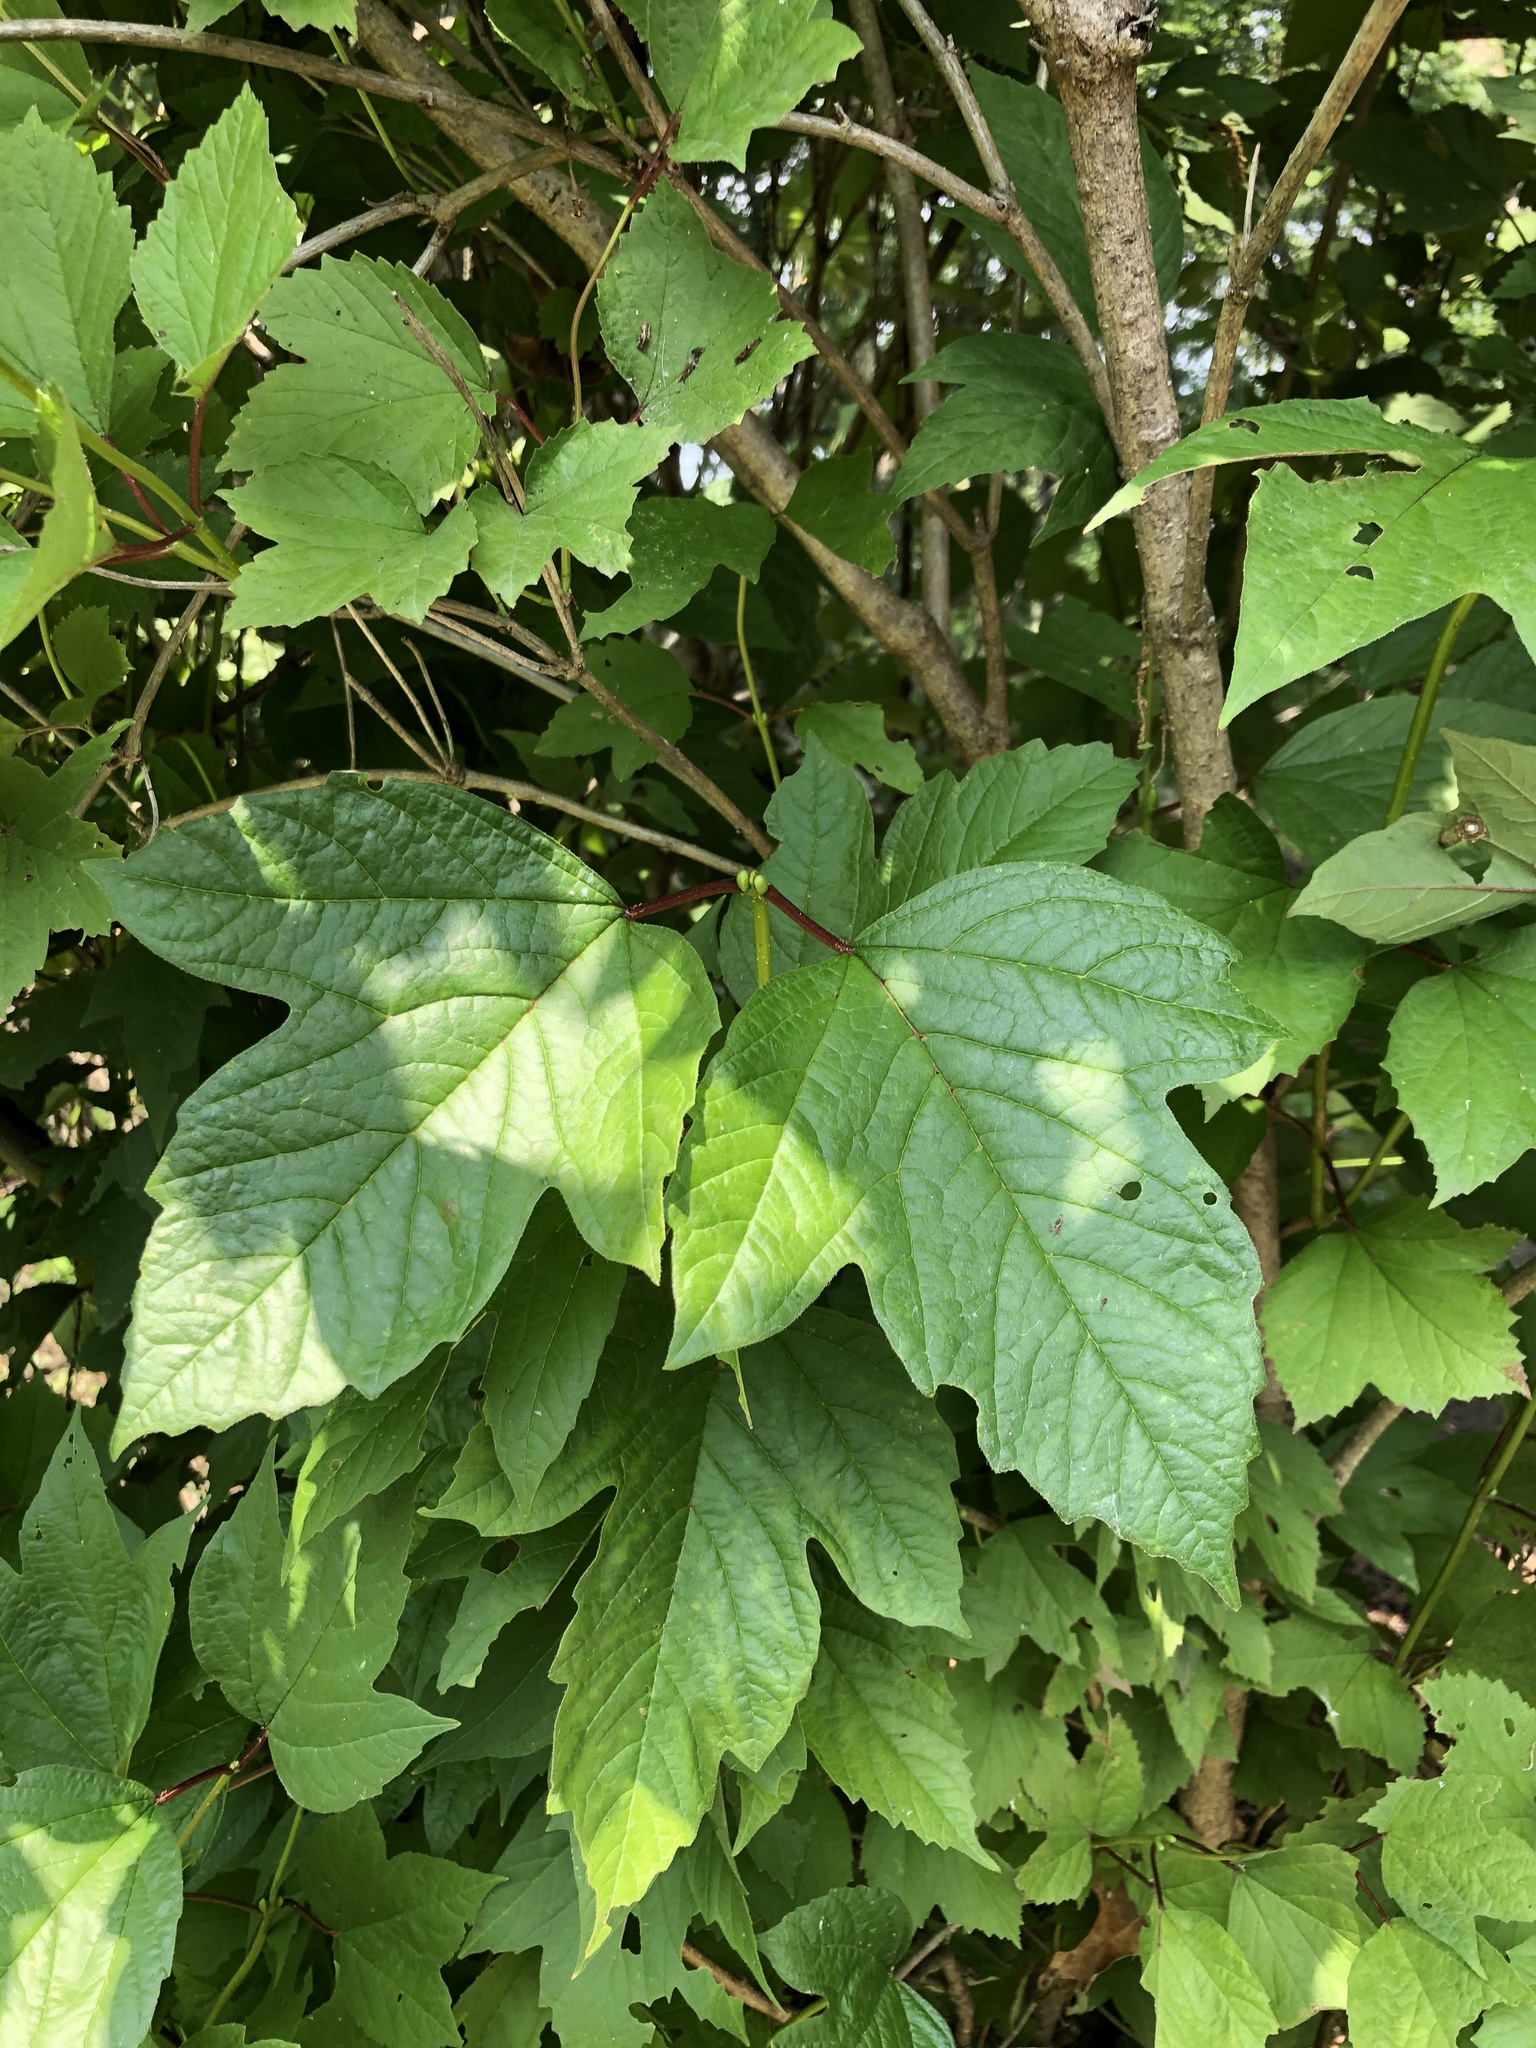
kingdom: Plantae
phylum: Tracheophyta
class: Magnoliopsida
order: Dipsacales
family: Viburnaceae
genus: Viburnum
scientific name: Viburnum opulus
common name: Guelder-rose
